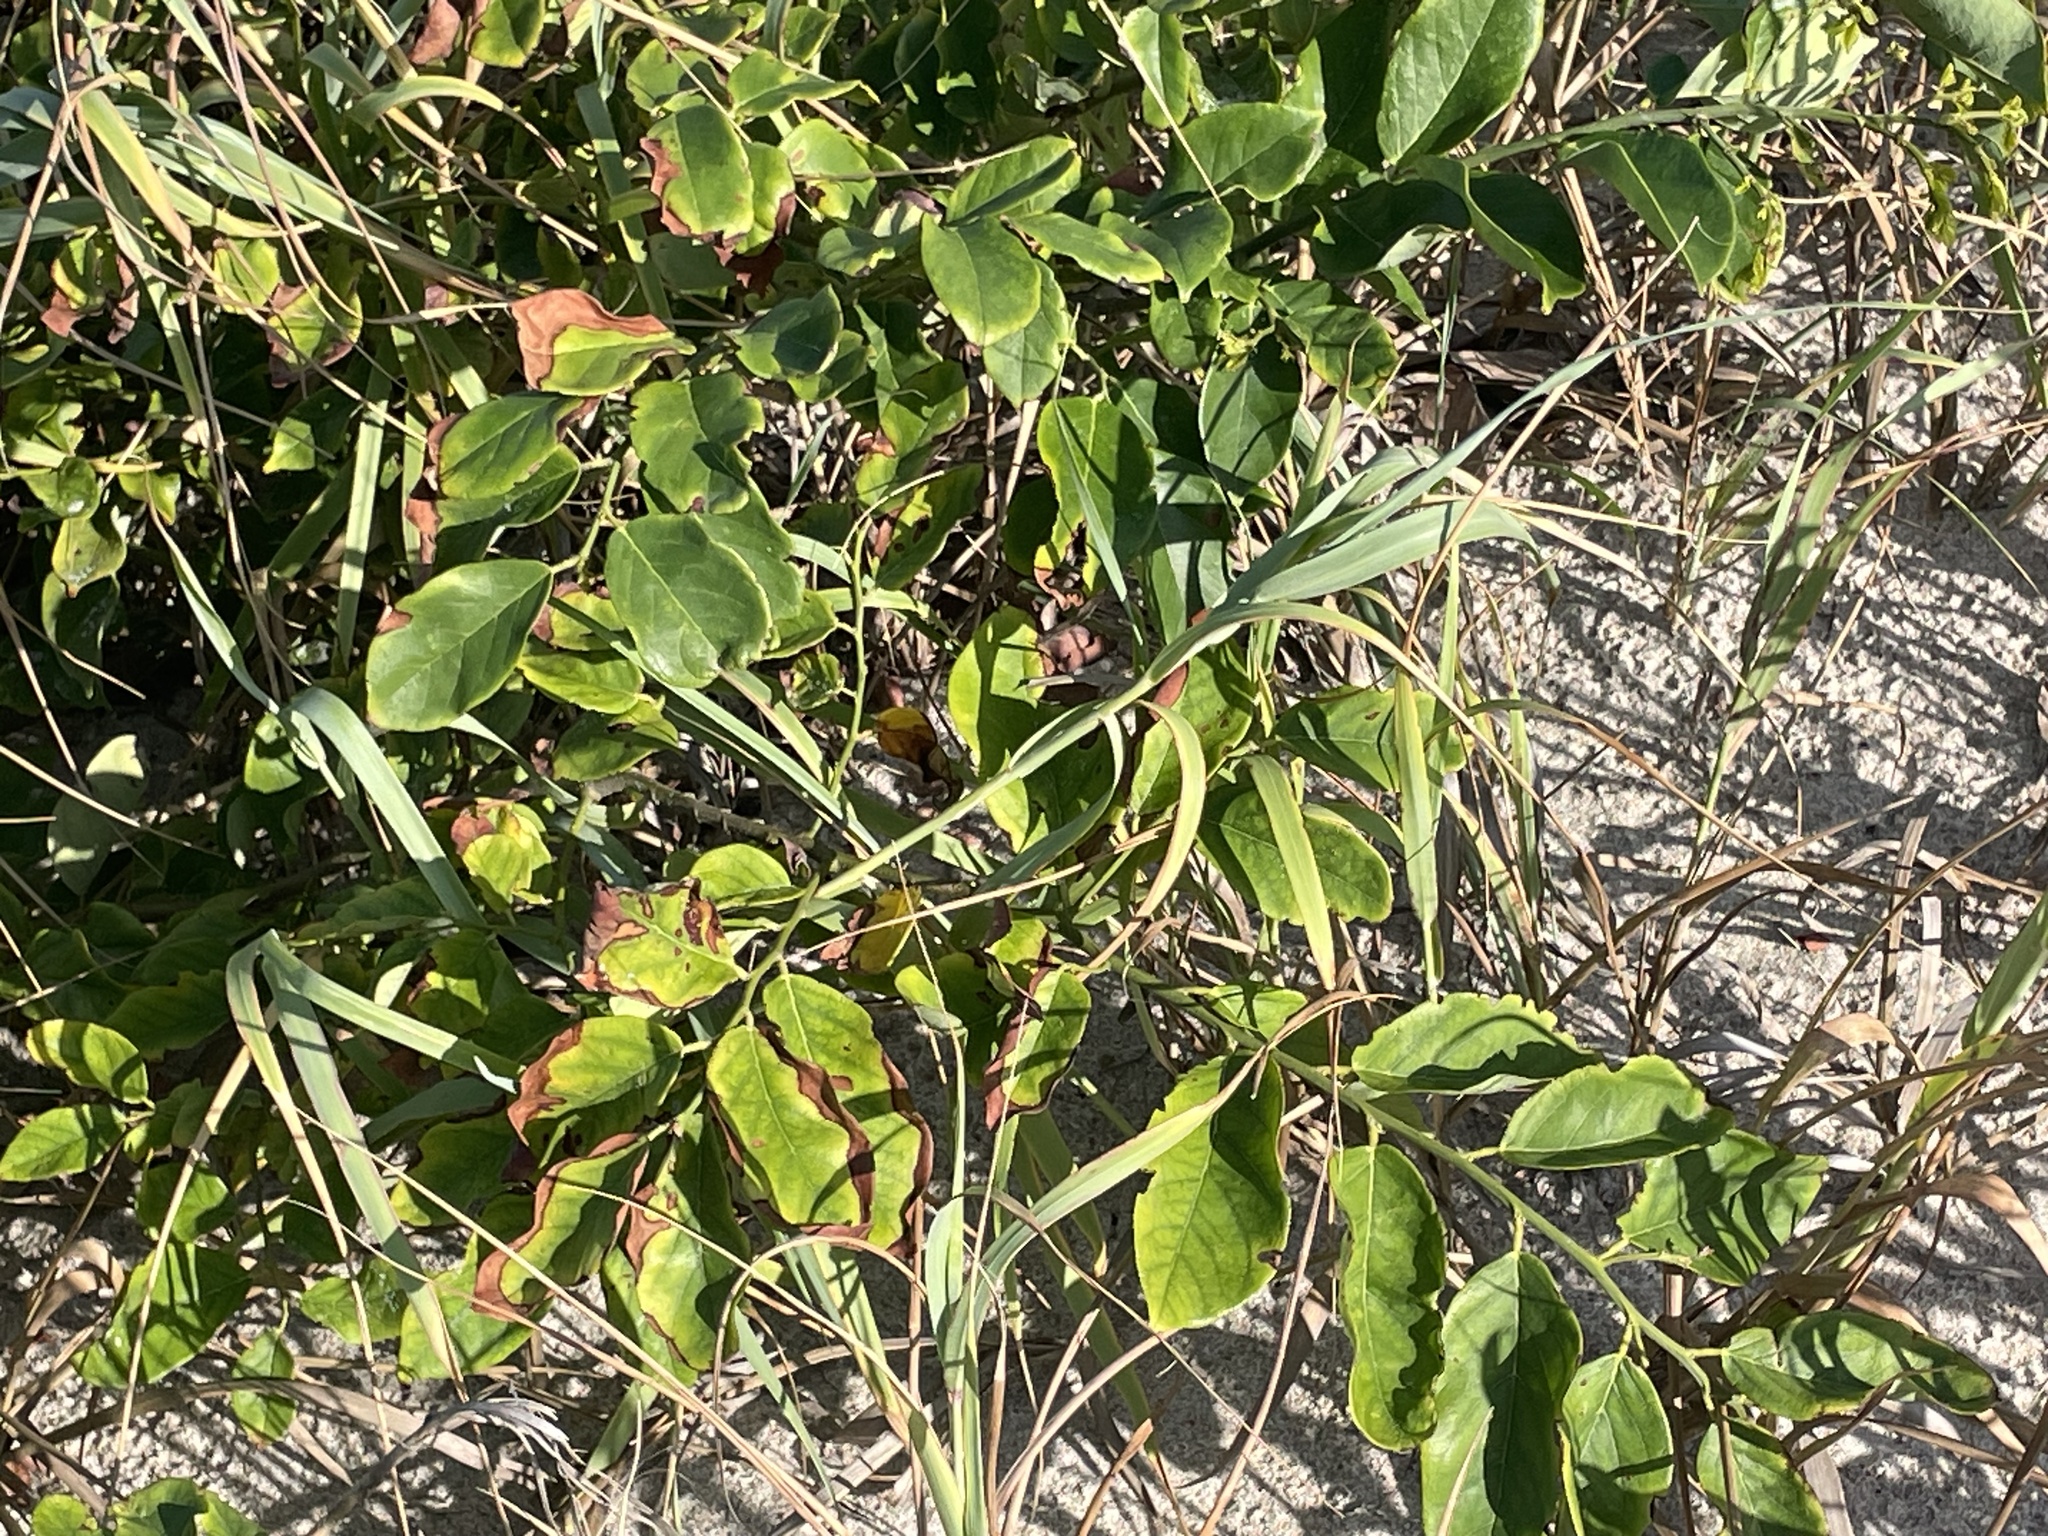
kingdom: Plantae
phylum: Tracheophyta
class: Magnoliopsida
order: Fabales
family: Fabaceae
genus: Dalbergia
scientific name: Dalbergia ecastaphyllum
